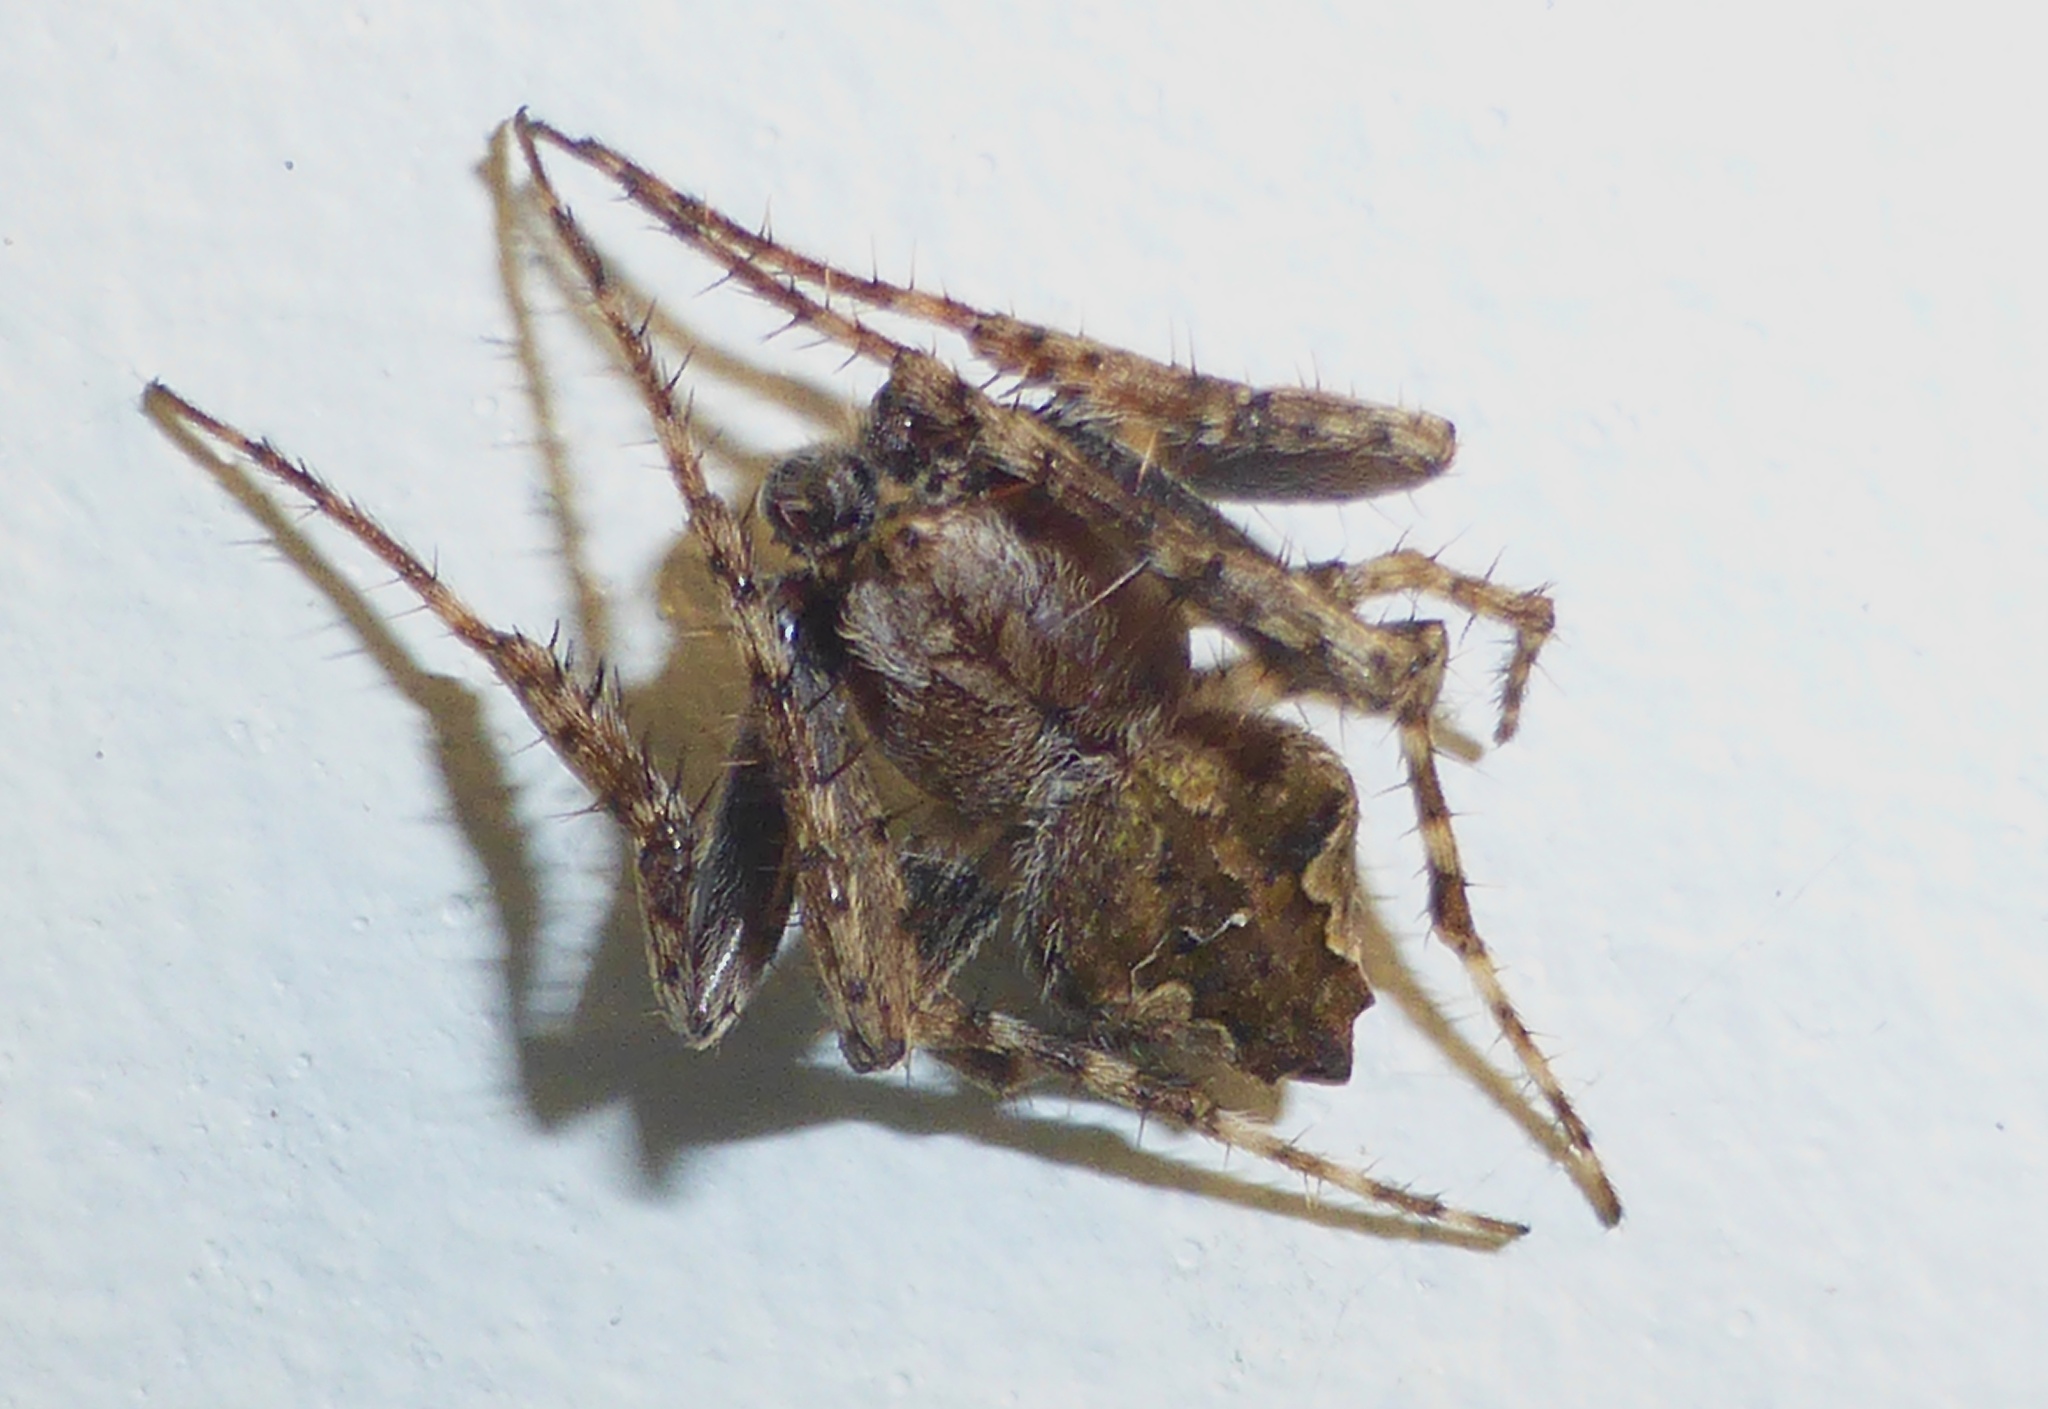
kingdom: Animalia
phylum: Arthropoda
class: Arachnida
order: Araneae
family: Araneidae
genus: Eriophora
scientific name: Eriophora pustulosa
